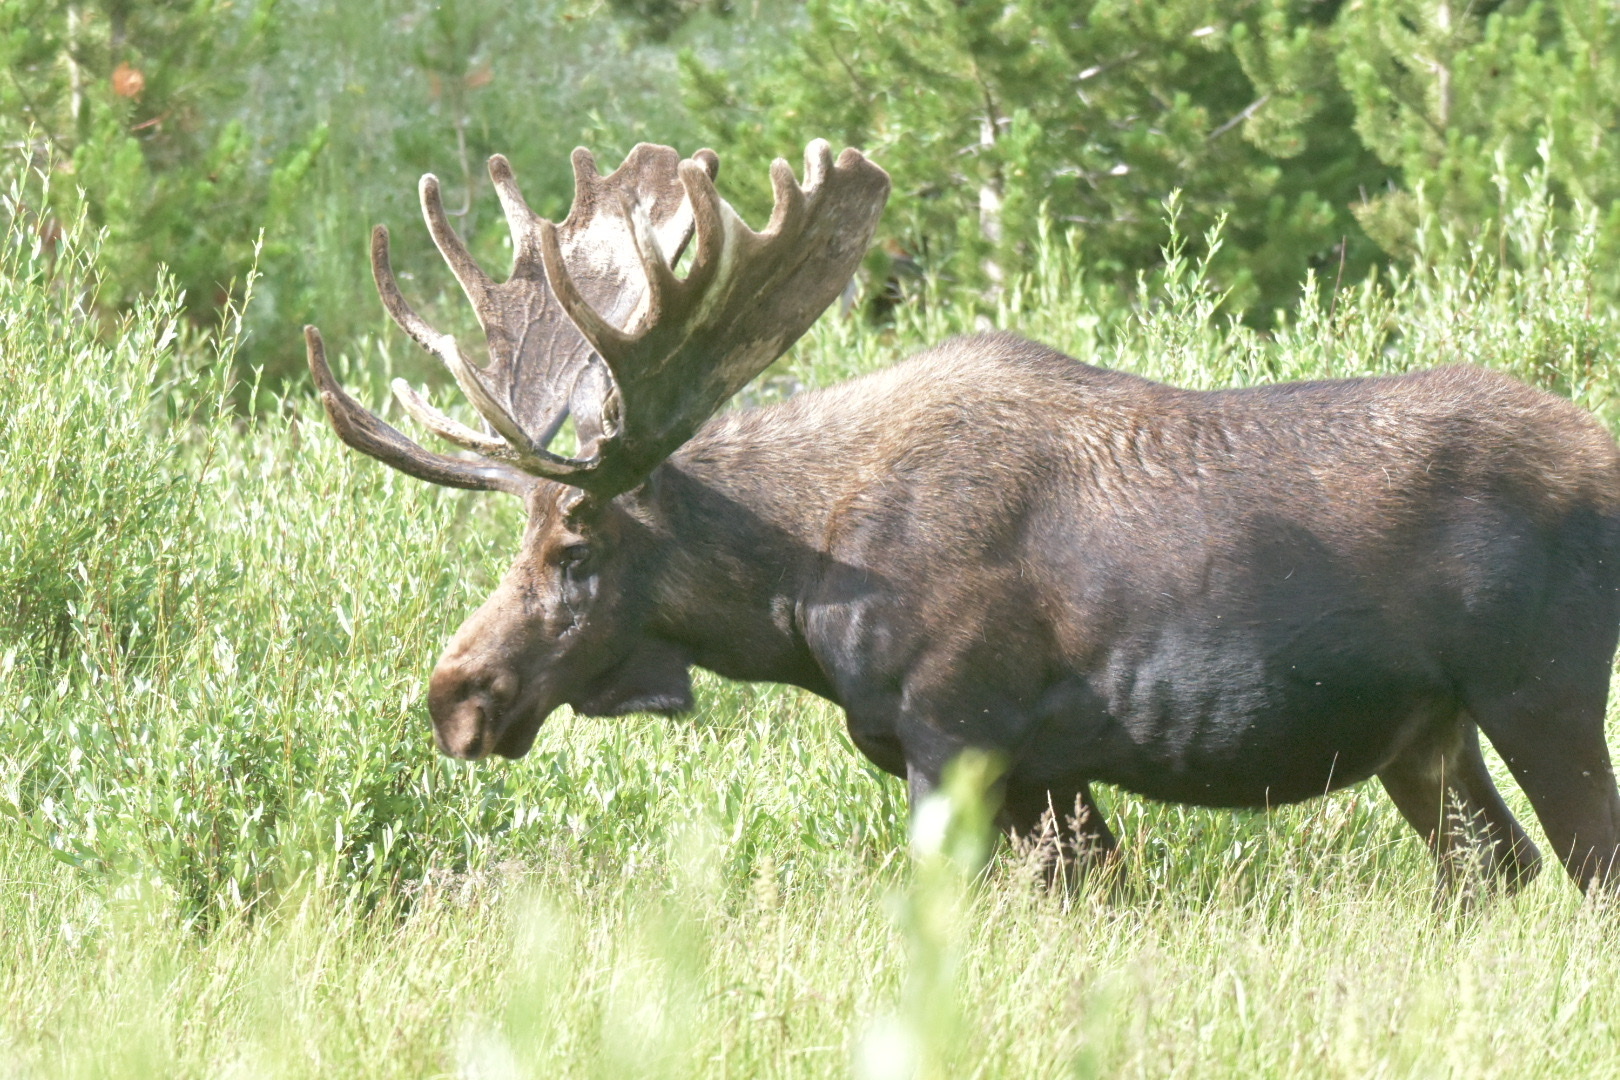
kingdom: Animalia
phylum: Chordata
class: Mammalia
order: Artiodactyla
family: Cervidae
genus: Alces
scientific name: Alces alces
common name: Moose
